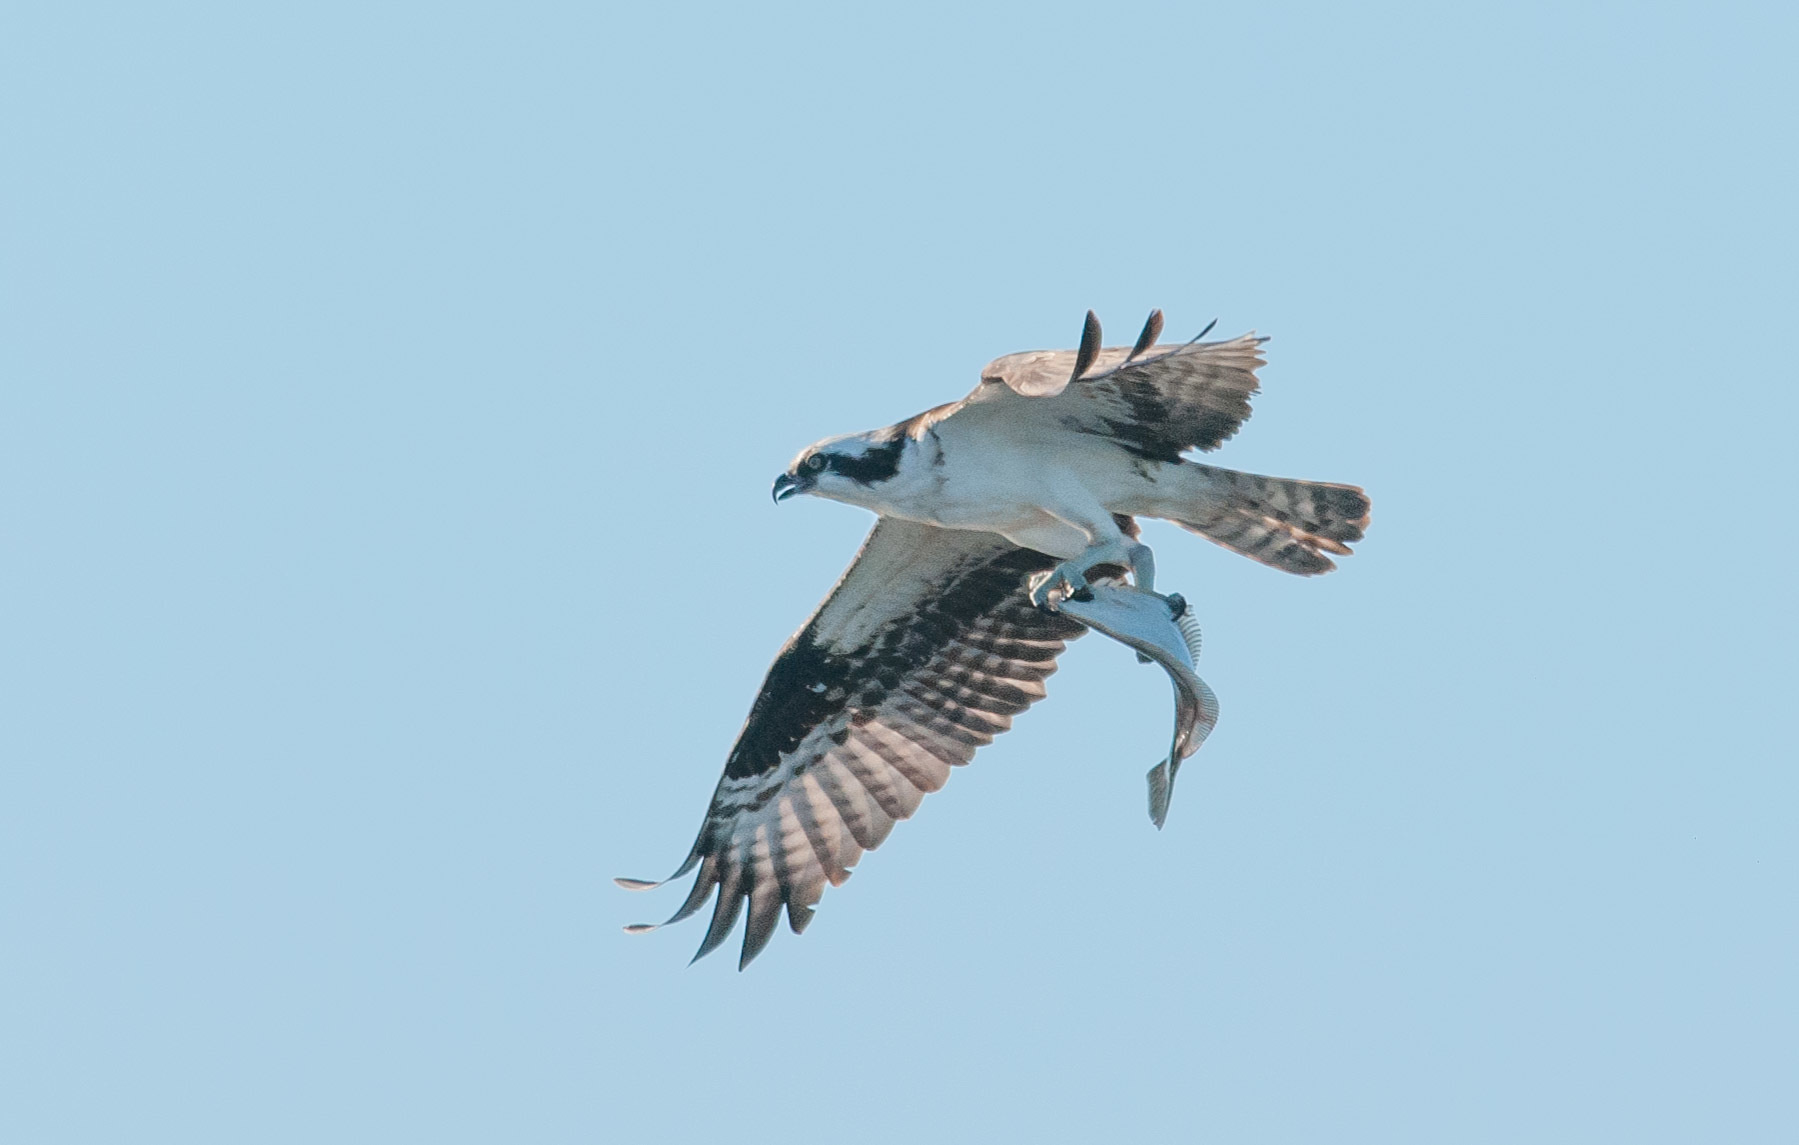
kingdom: Animalia
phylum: Chordata
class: Aves
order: Accipitriformes
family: Pandionidae
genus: Pandion
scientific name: Pandion haliaetus
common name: Osprey
